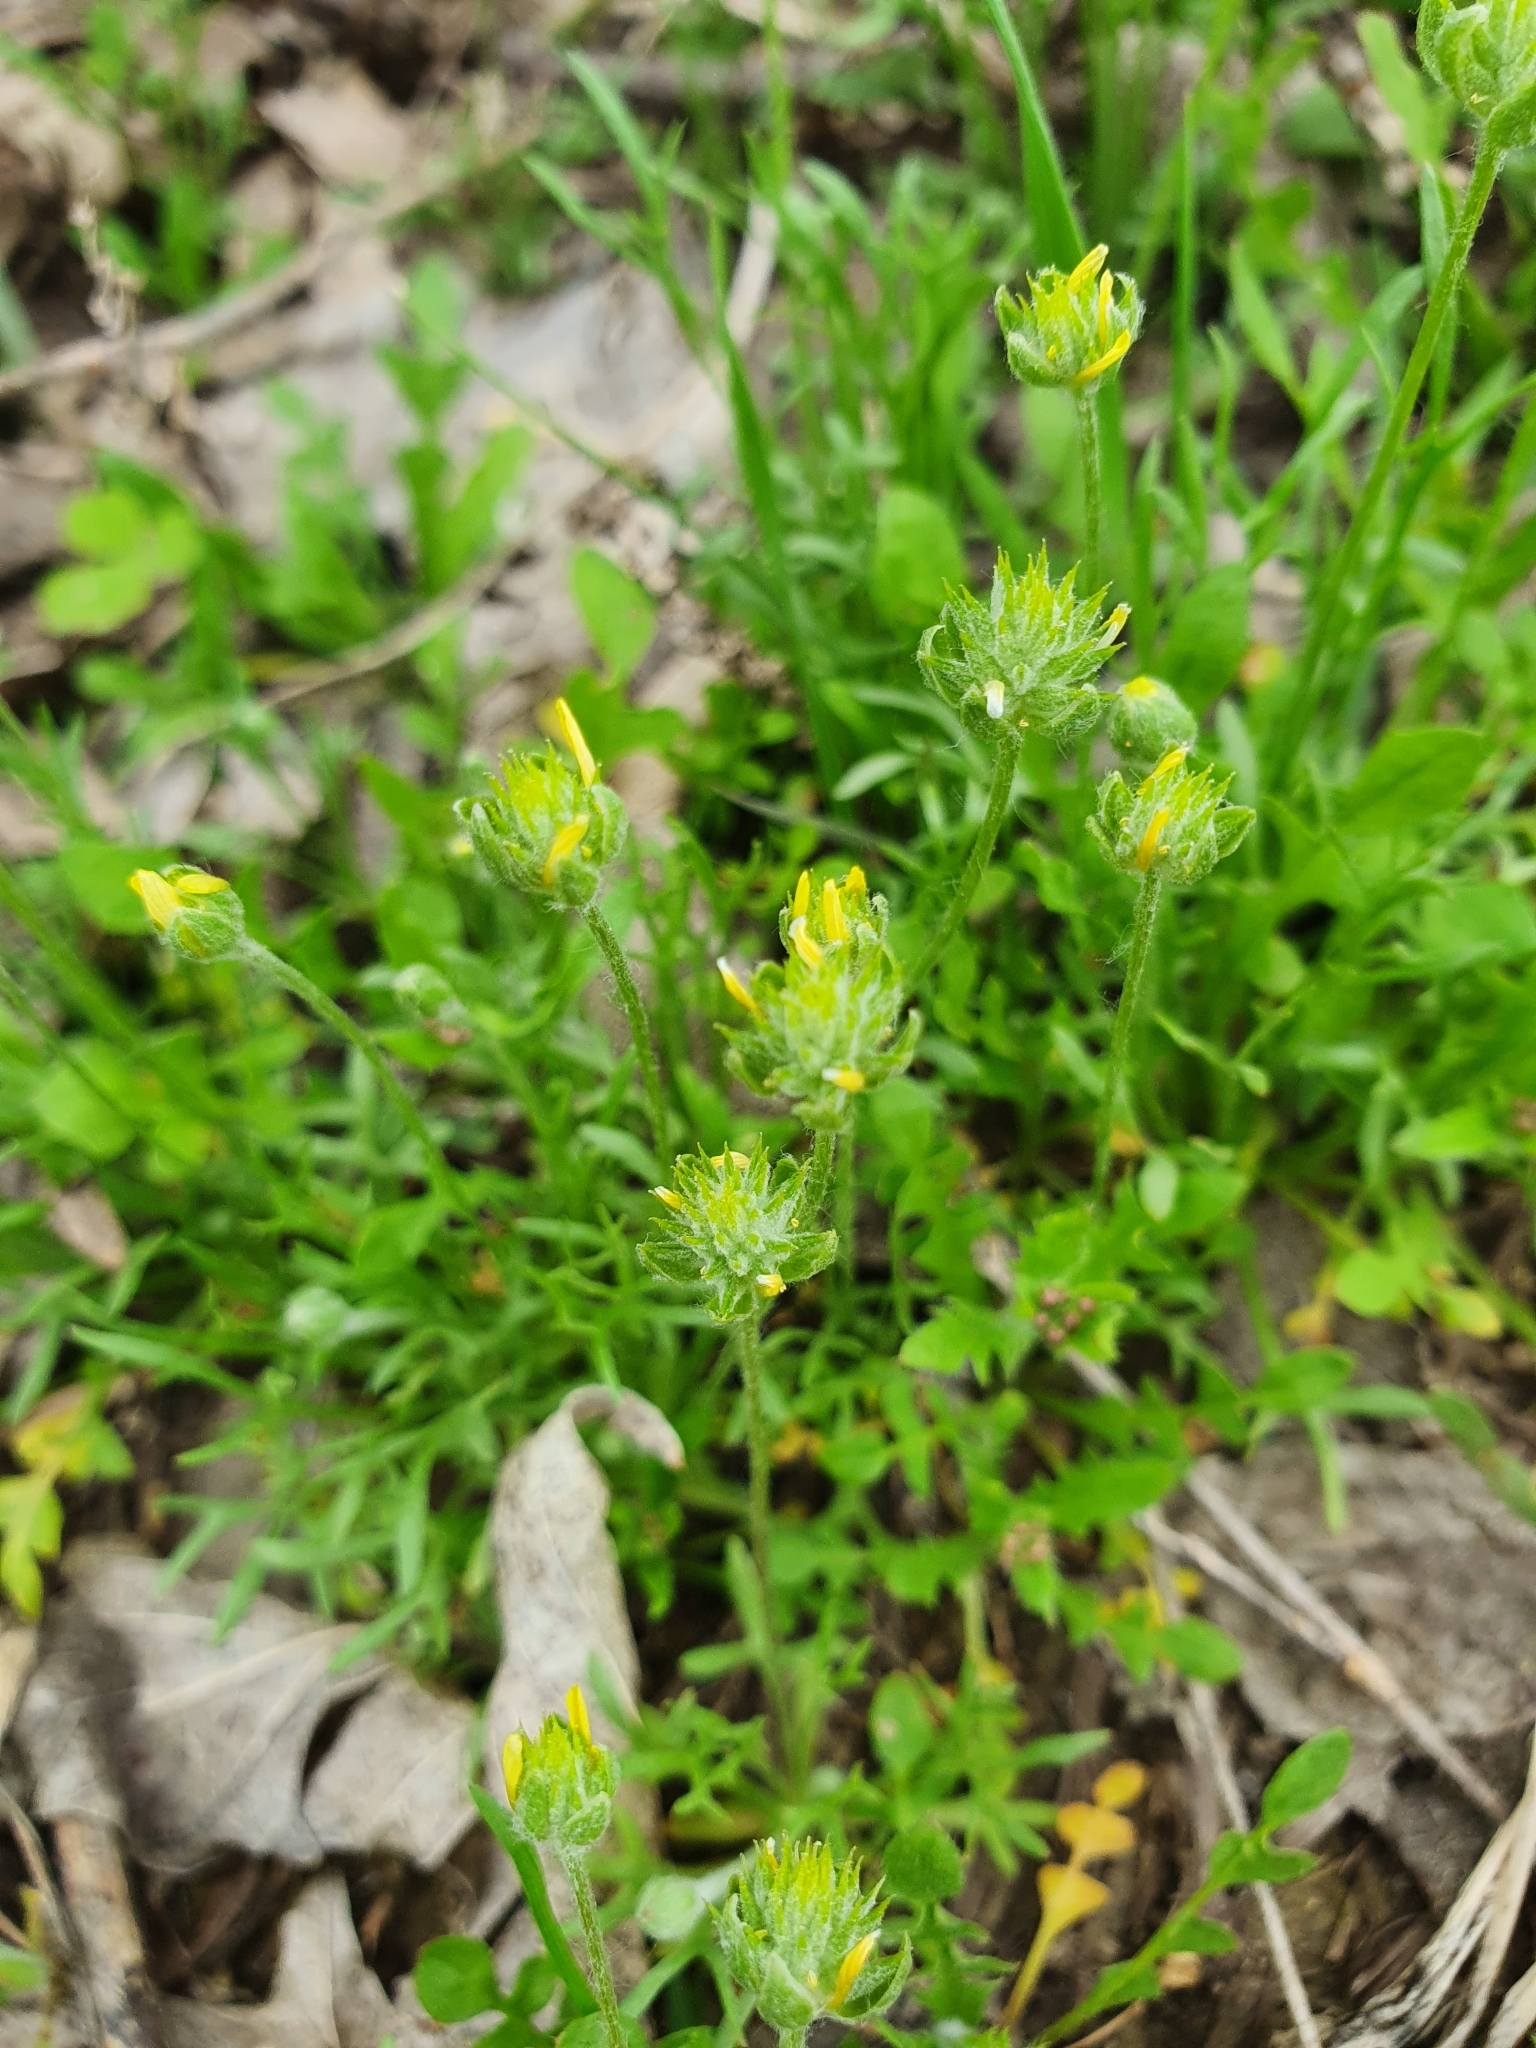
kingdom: Plantae
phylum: Tracheophyta
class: Magnoliopsida
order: Ranunculales
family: Ranunculaceae
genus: Ceratocephala
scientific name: Ceratocephala orthoceras
